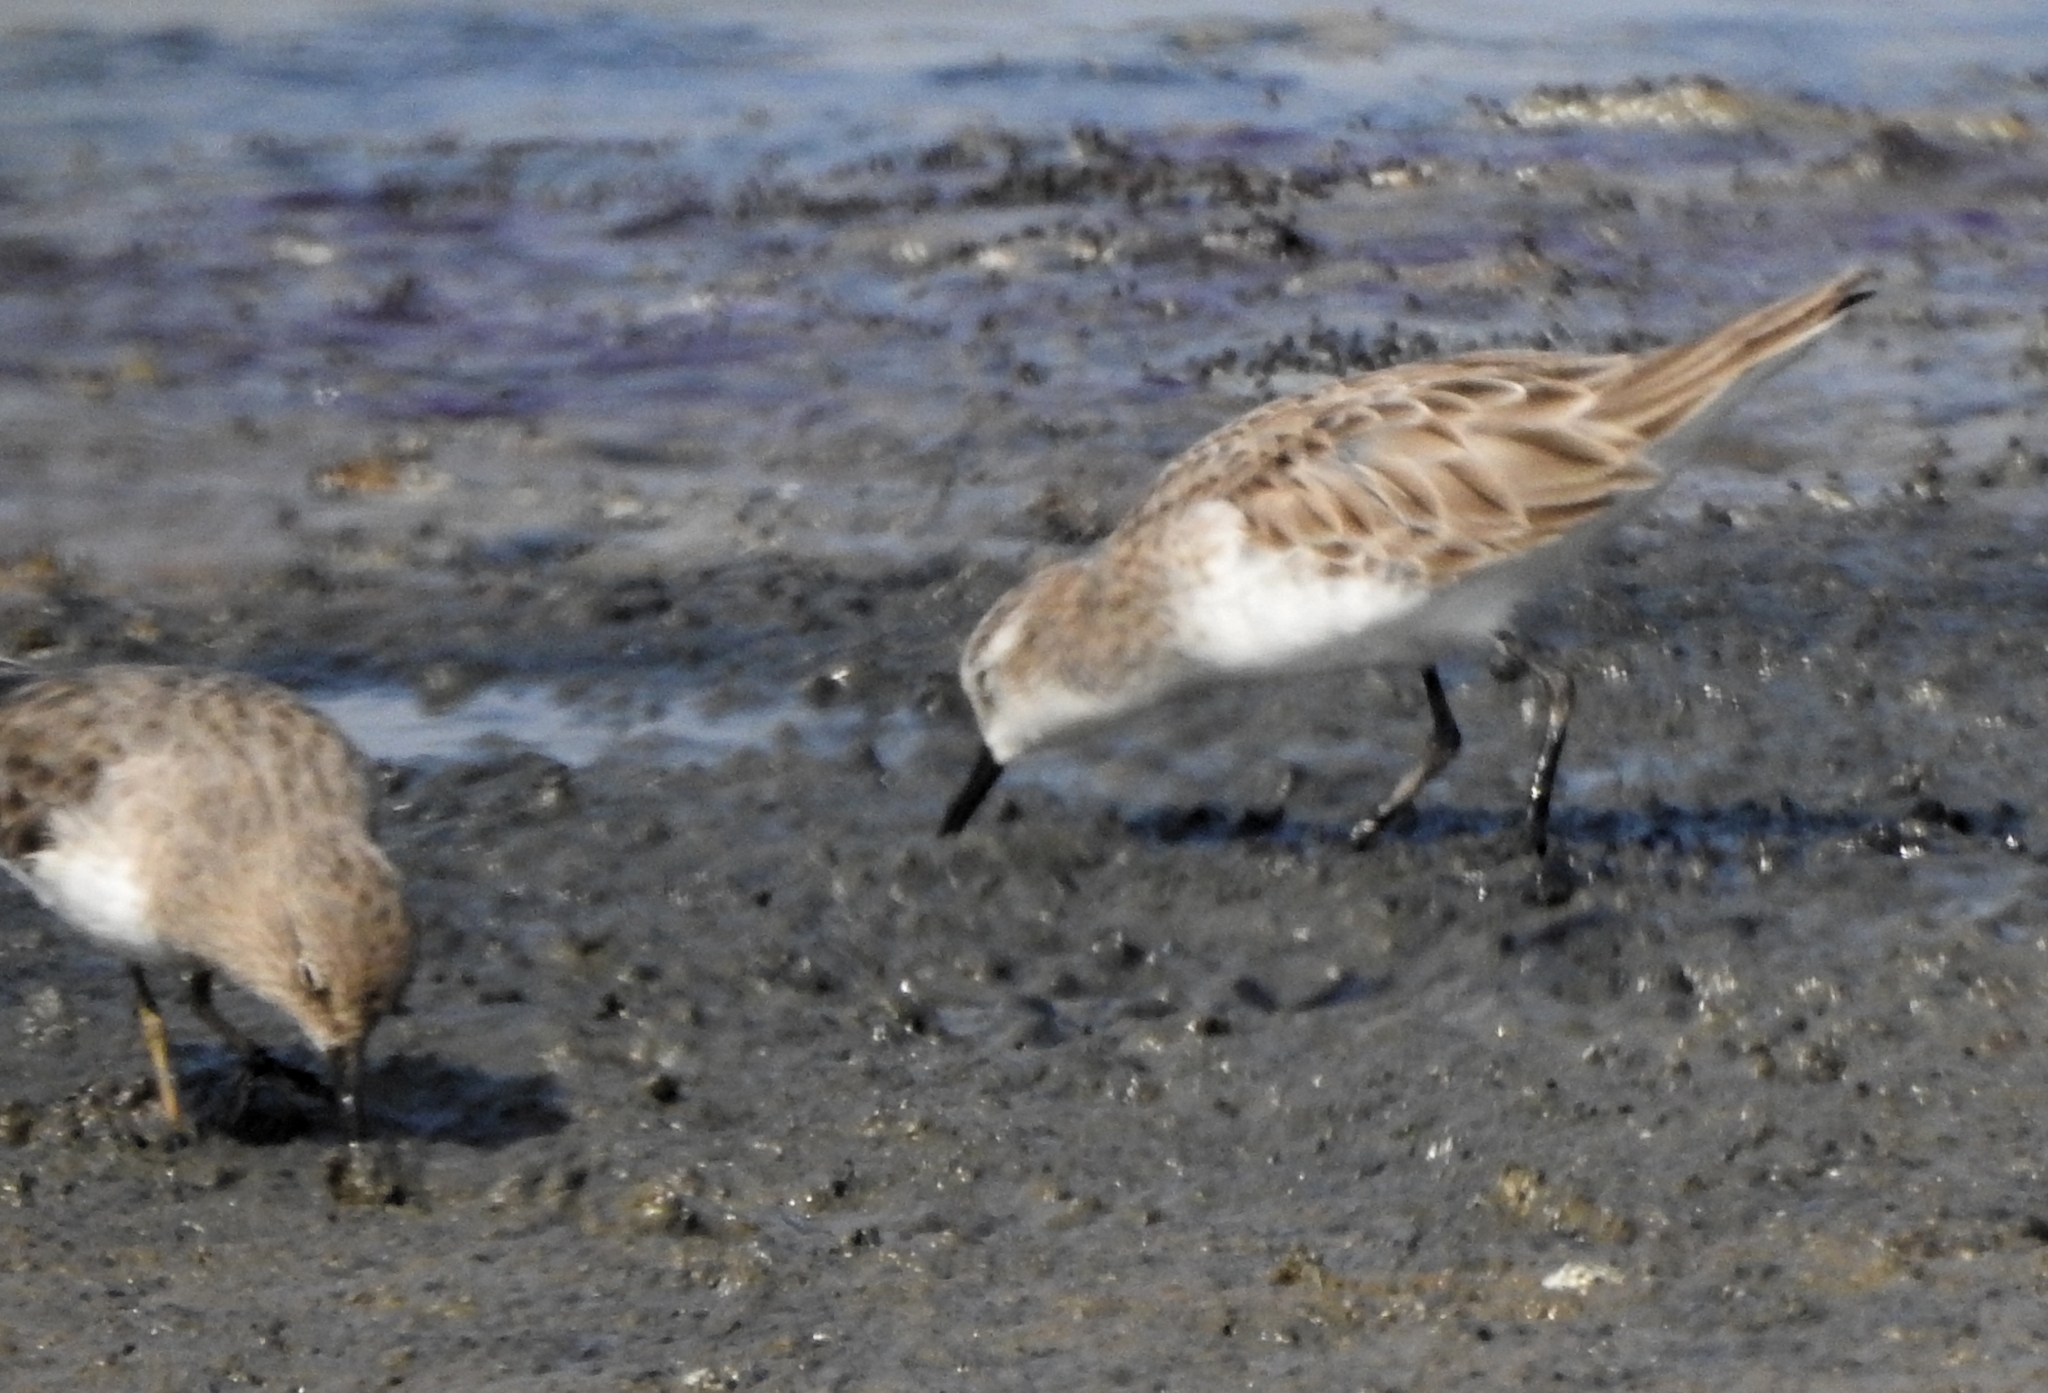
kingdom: Animalia
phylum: Chordata
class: Aves
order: Charadriiformes
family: Scolopacidae
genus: Calidris
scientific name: Calidris temminckii
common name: Temminck's stint
